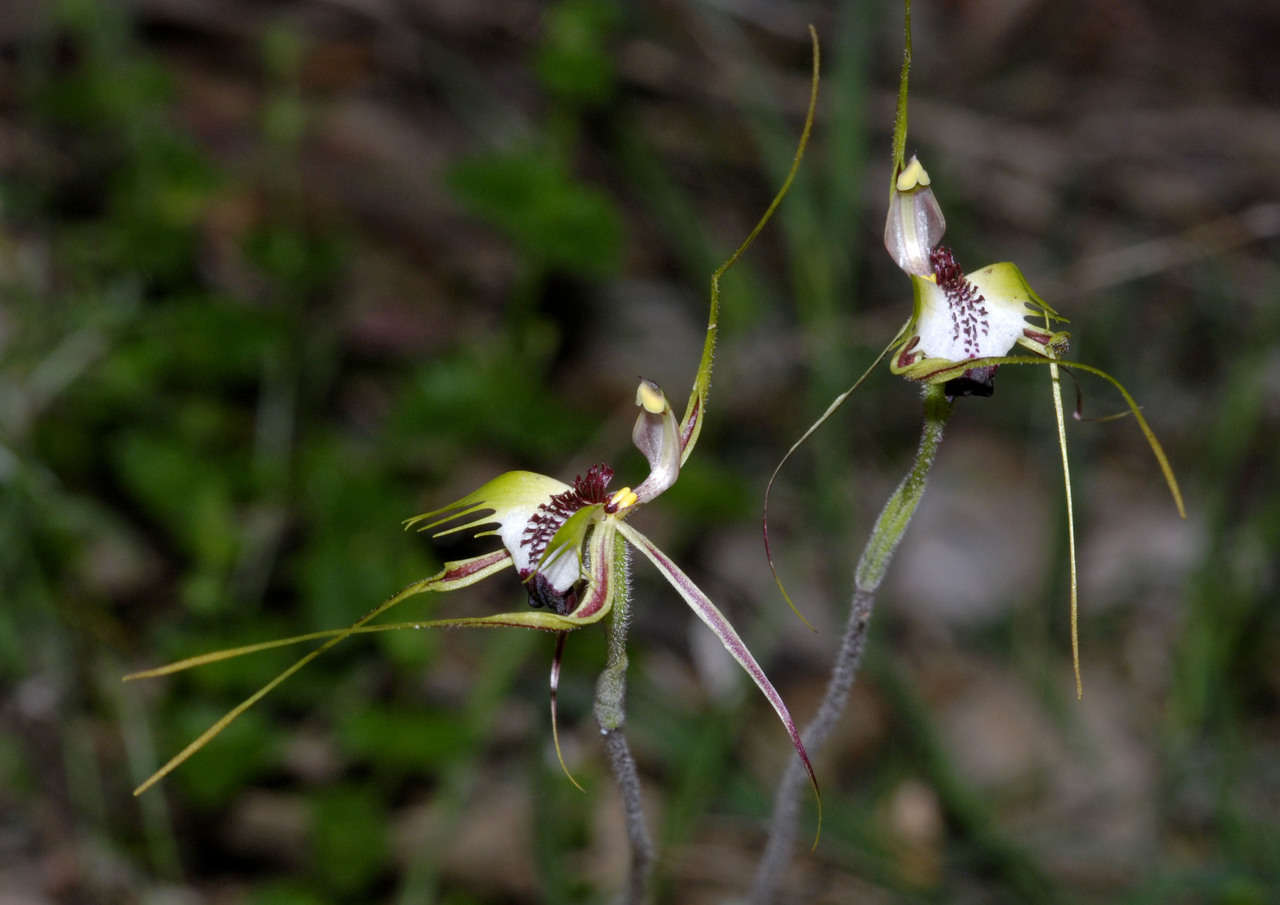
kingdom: Plantae
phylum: Tracheophyta
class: Liliopsida
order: Asparagales
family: Orchidaceae
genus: Caladenia
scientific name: Caladenia tentaculata
